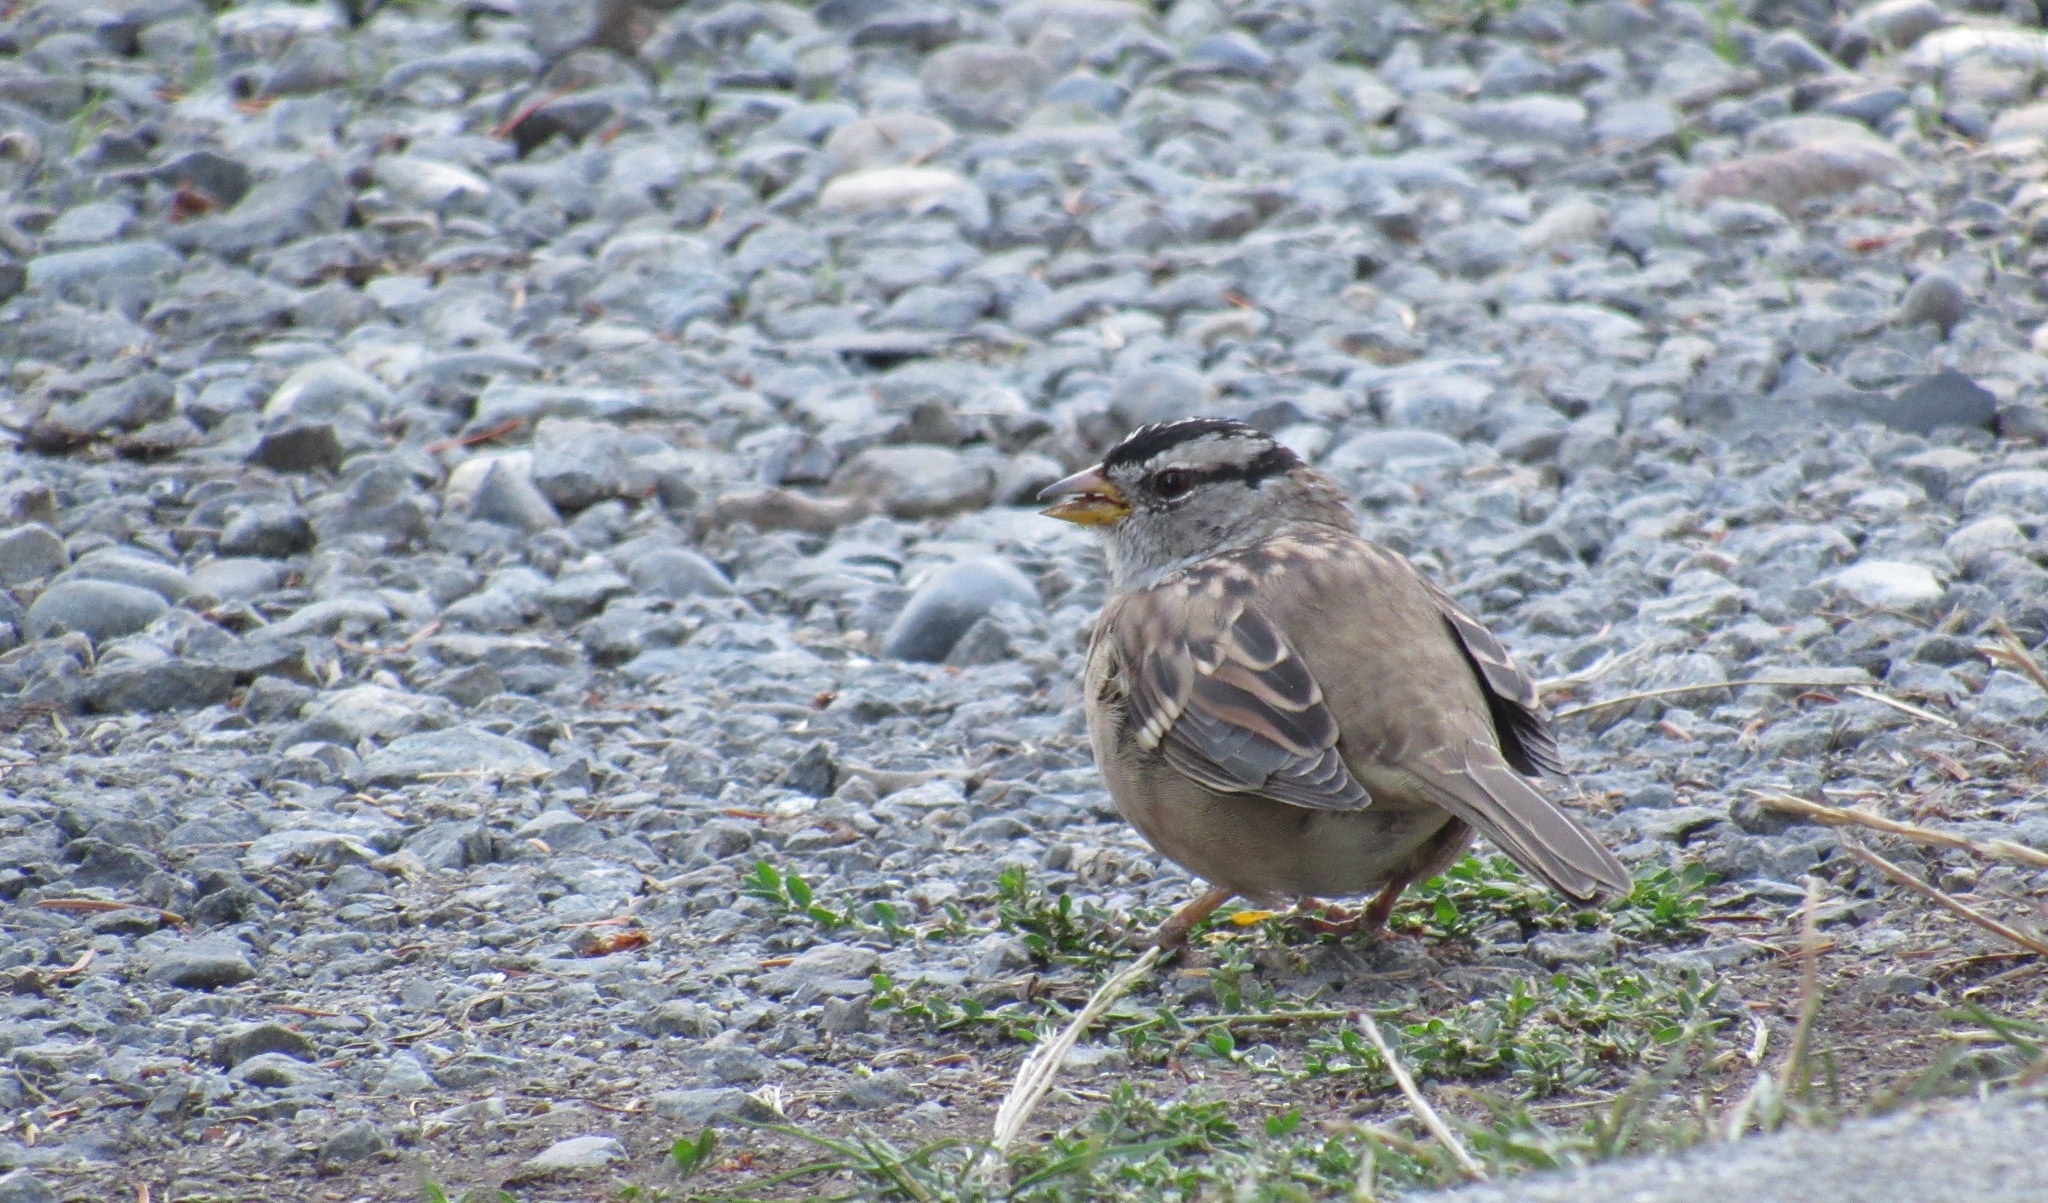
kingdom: Animalia
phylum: Chordata
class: Aves
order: Passeriformes
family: Passerellidae
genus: Zonotrichia
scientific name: Zonotrichia leucophrys
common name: White-crowned sparrow
